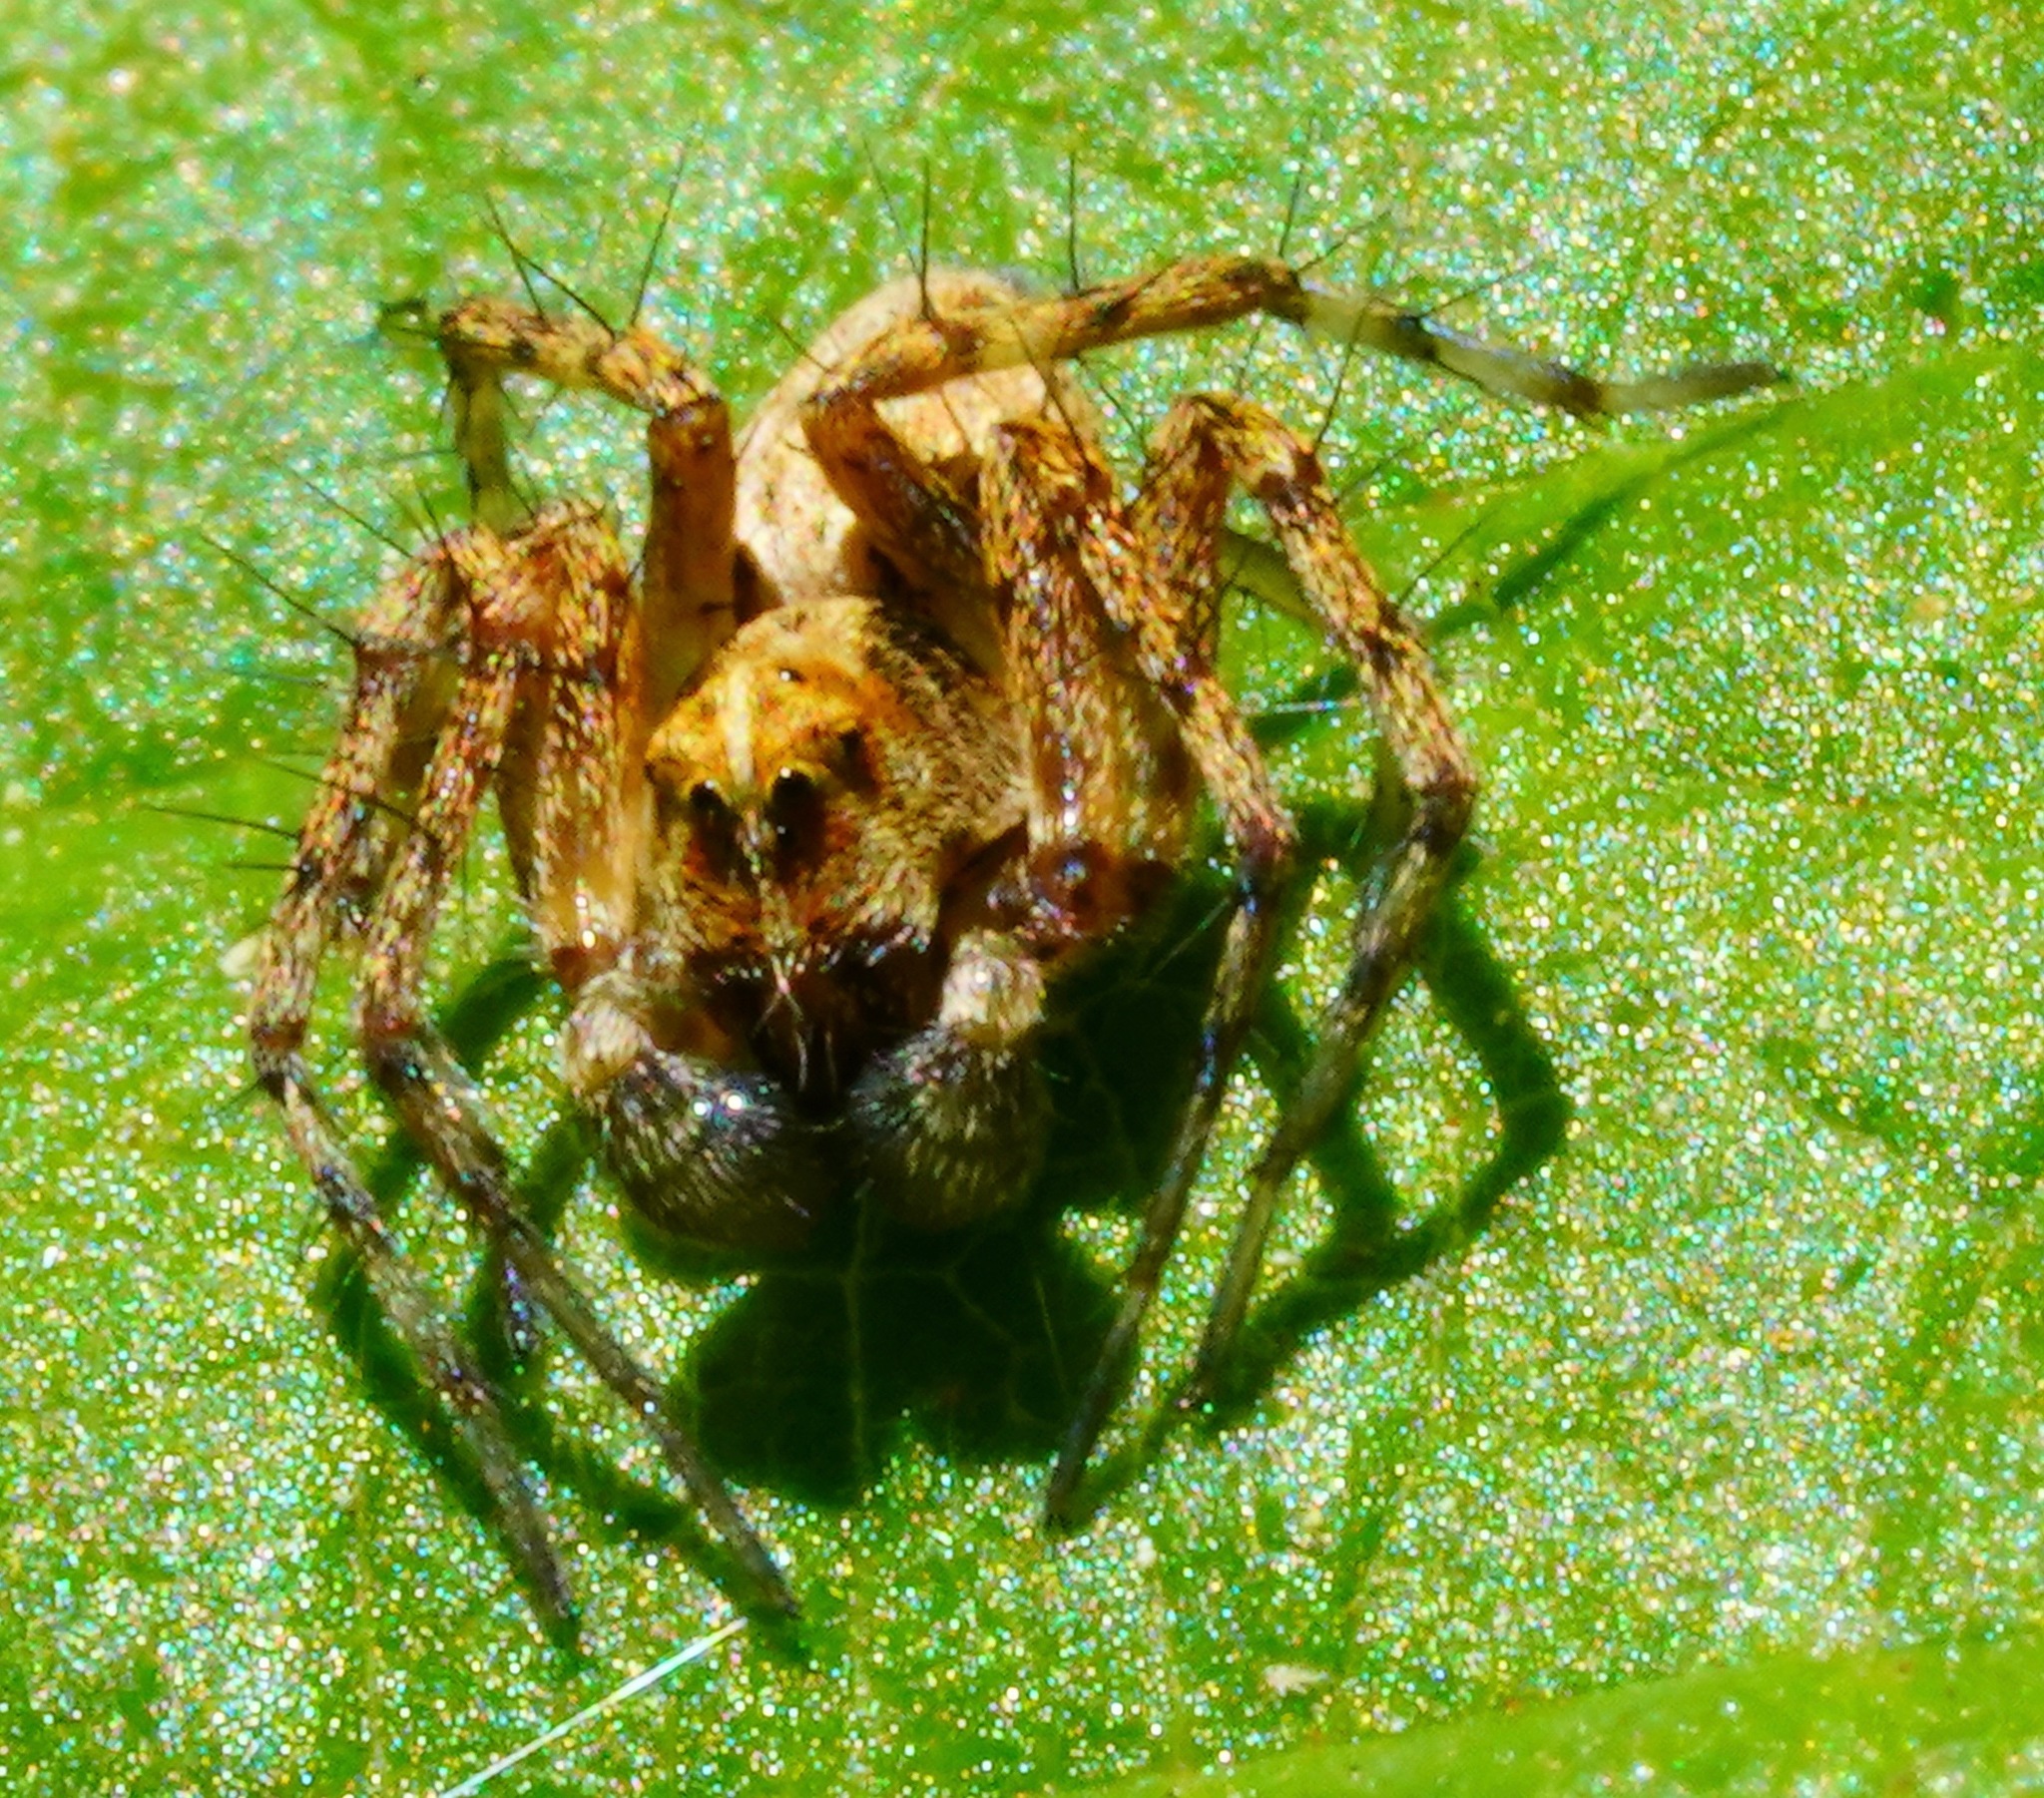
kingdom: Animalia
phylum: Arthropoda
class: Arachnida
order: Araneae
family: Oxyopidae
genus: Oxyopes
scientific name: Oxyopes scalaris
